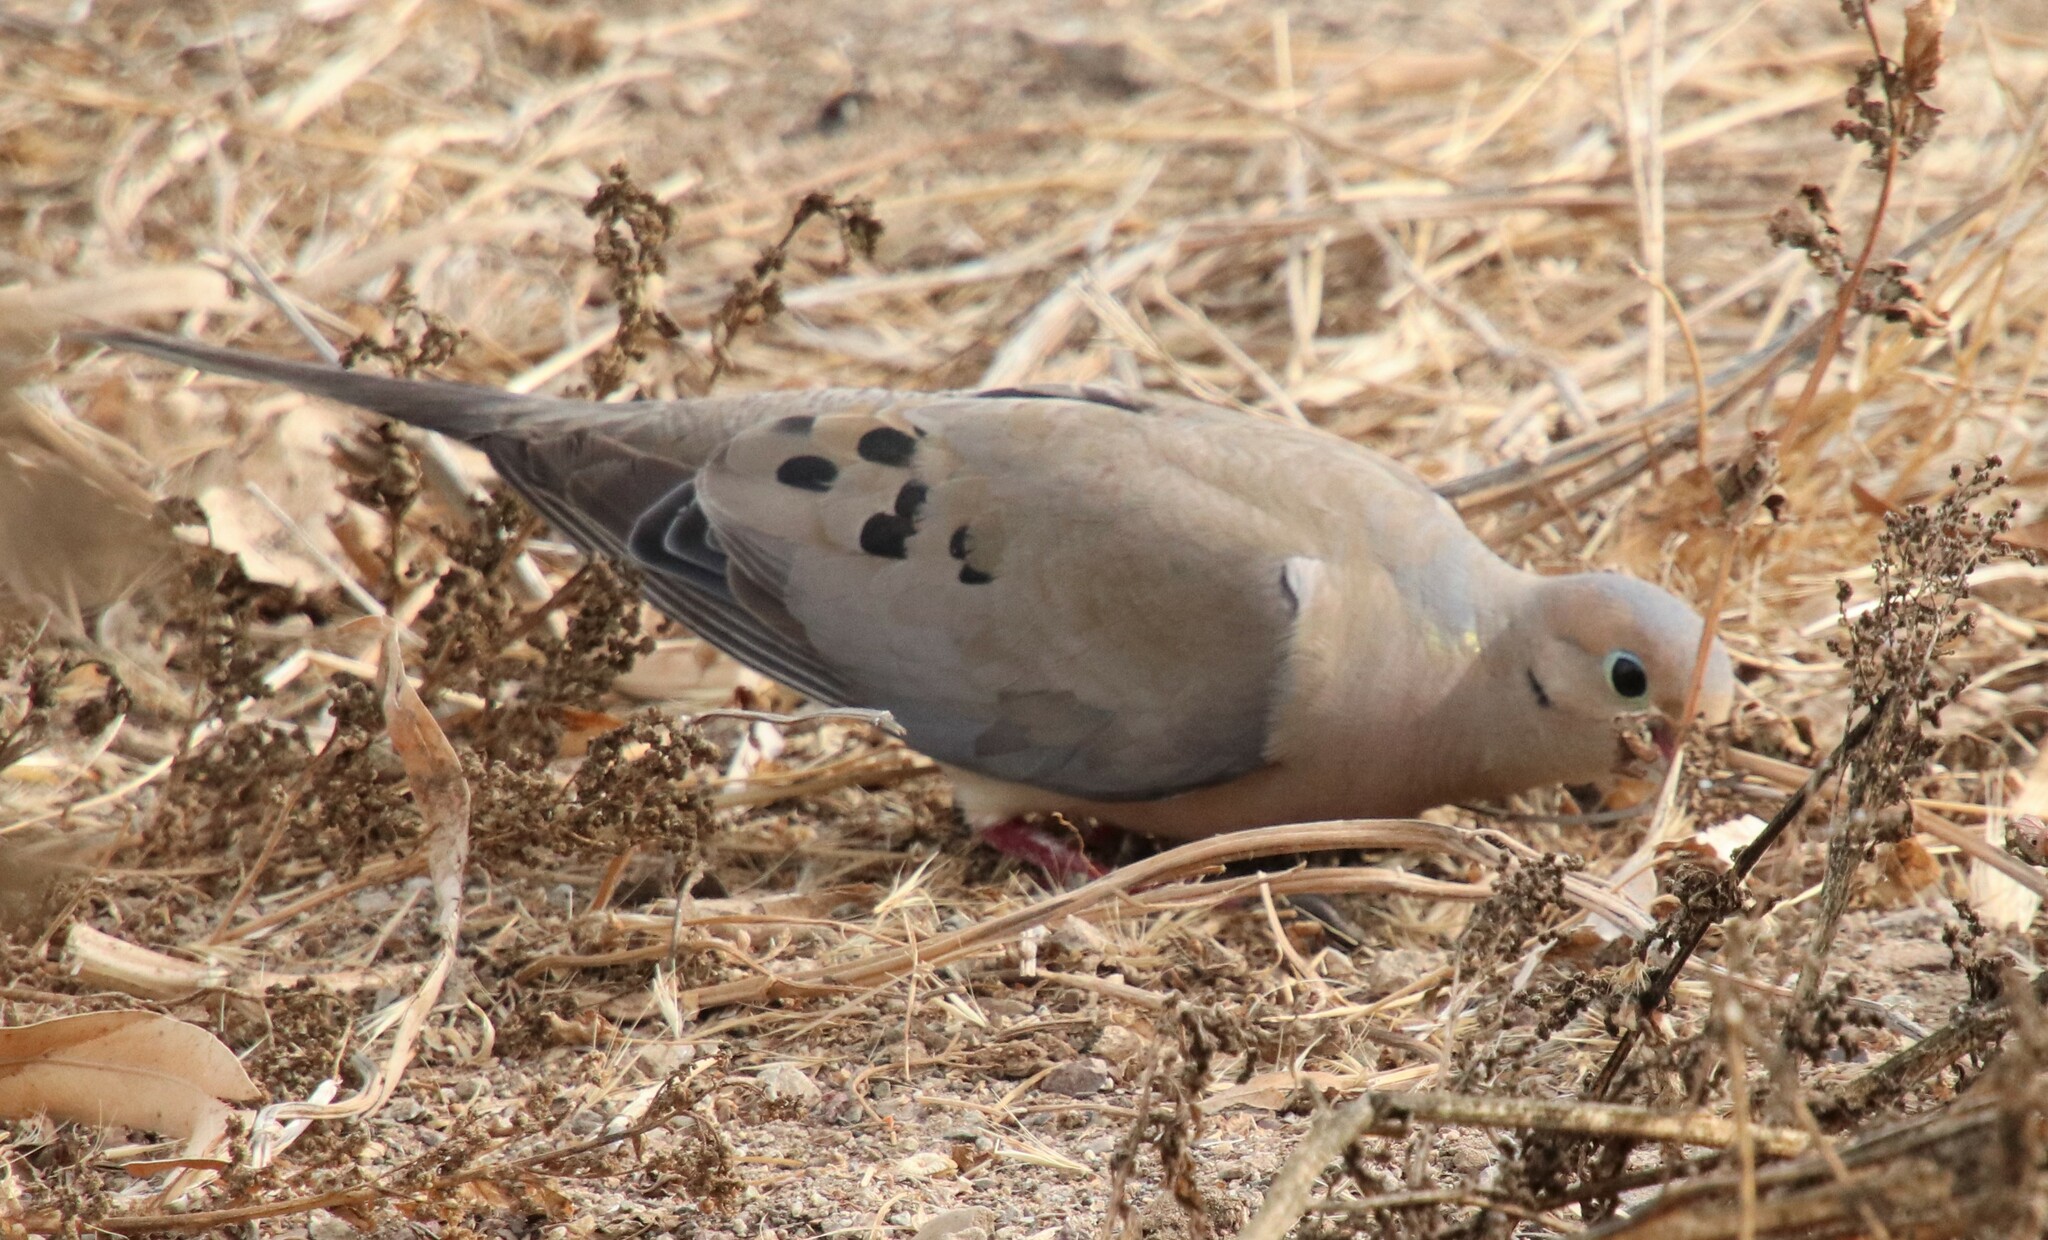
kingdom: Animalia
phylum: Chordata
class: Aves
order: Columbiformes
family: Columbidae
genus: Zenaida
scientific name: Zenaida macroura
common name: Mourning dove
